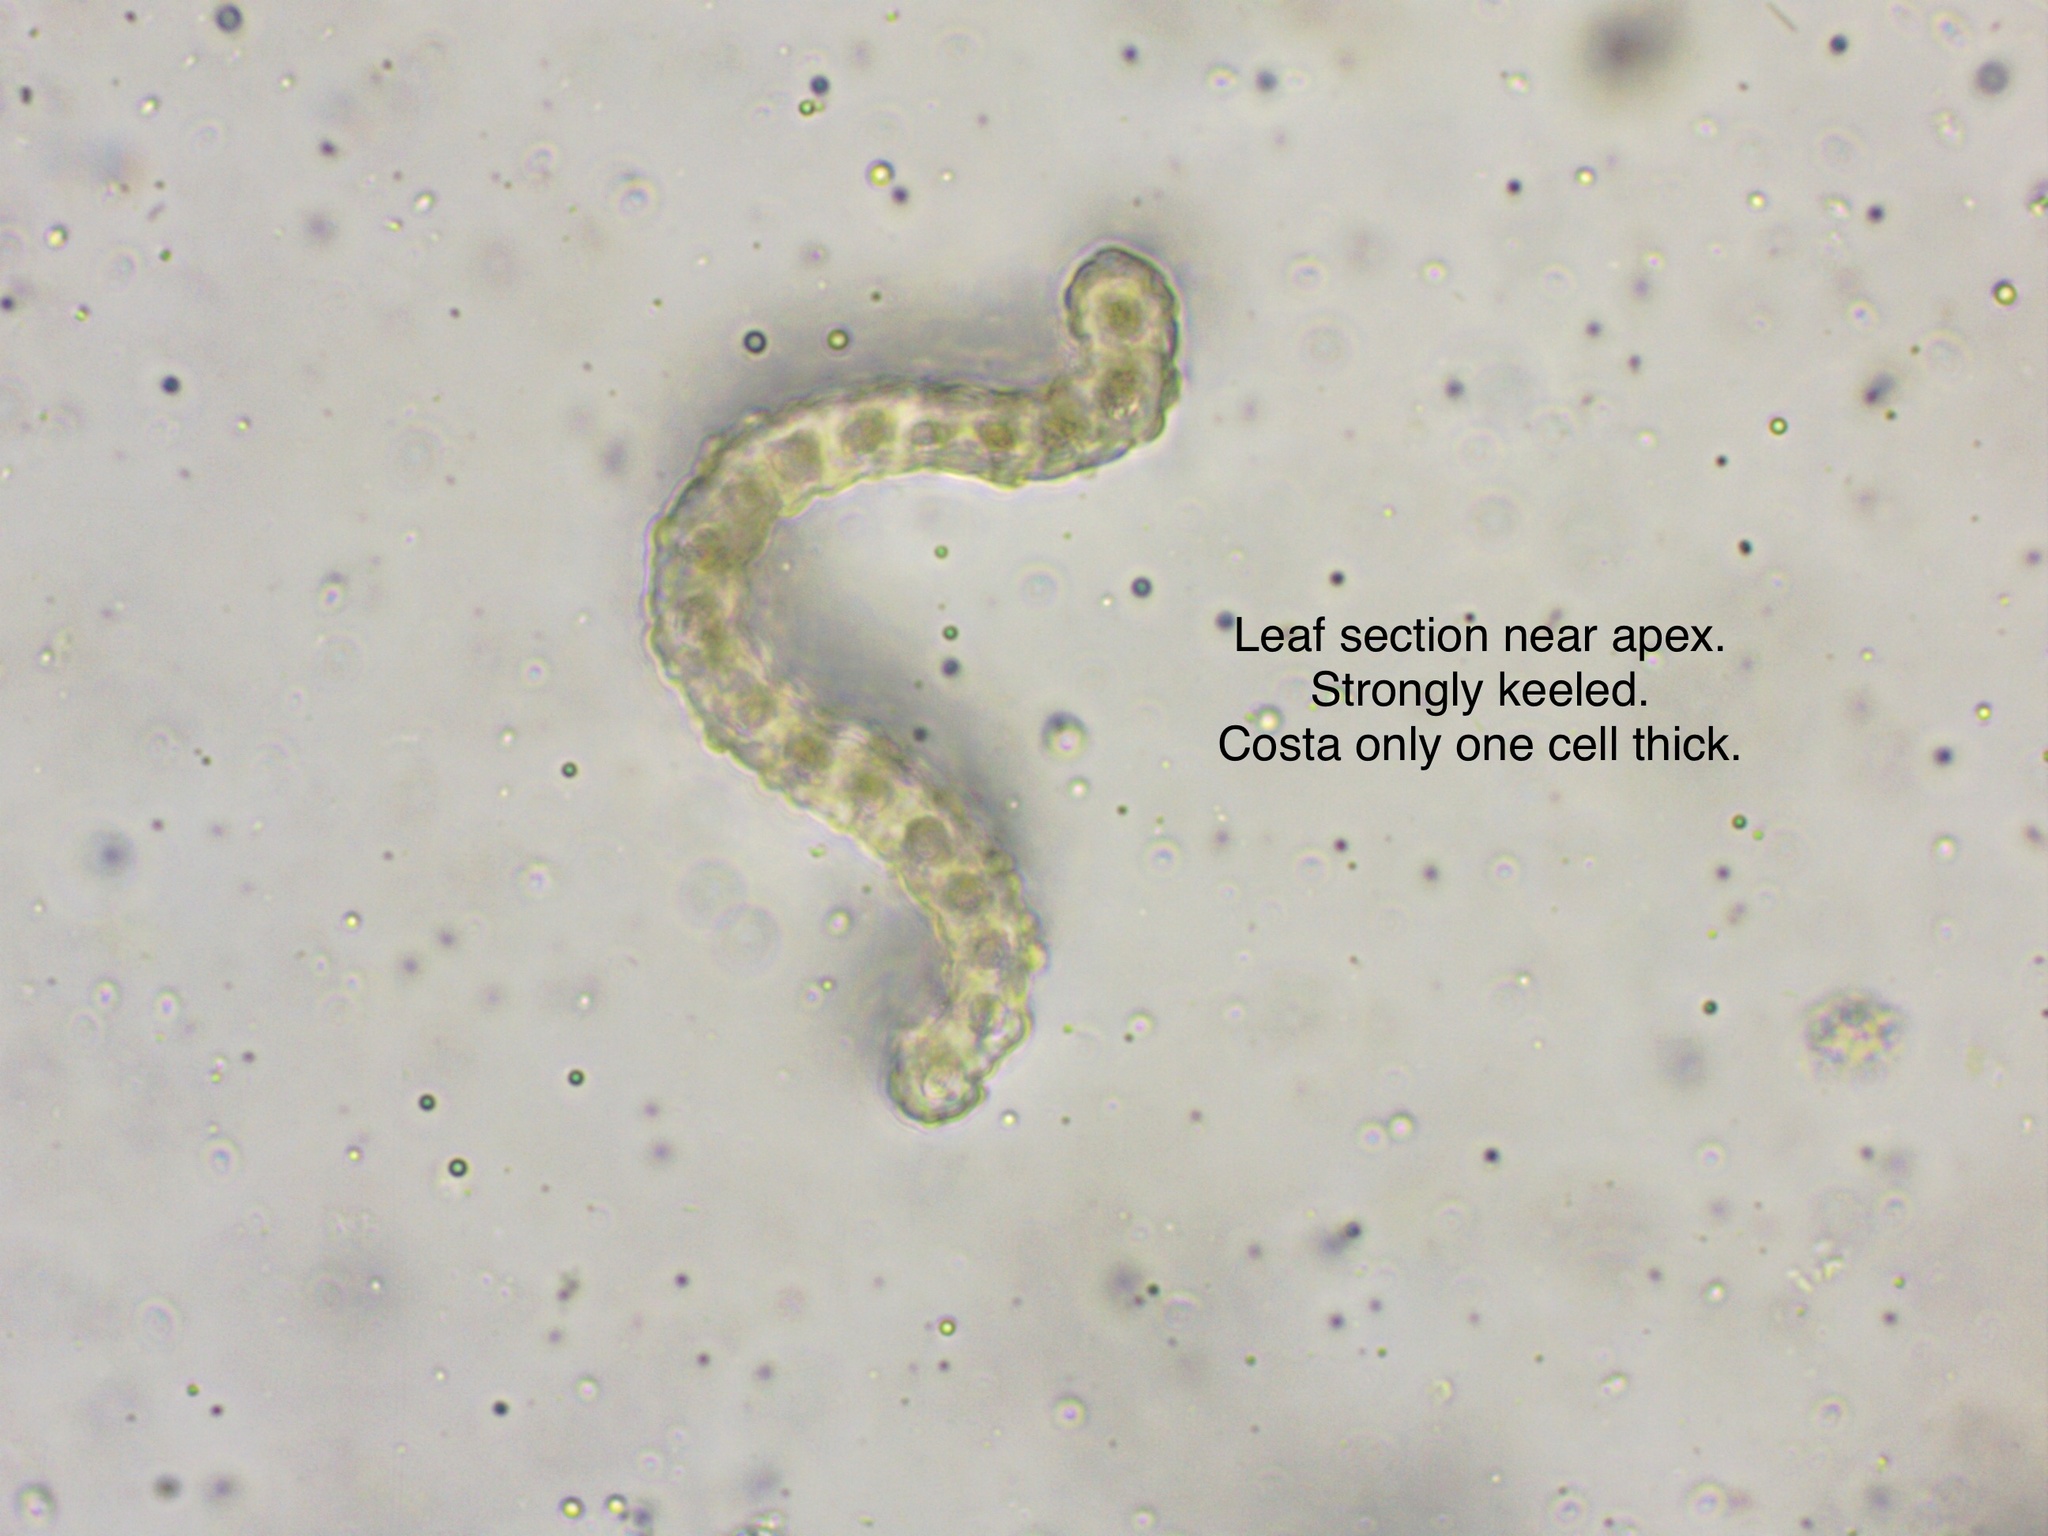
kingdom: Plantae
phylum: Bryophyta
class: Bryopsida
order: Grimmiales
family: Grimmiaceae
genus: Niphotrichum
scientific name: Niphotrichum ericoides
